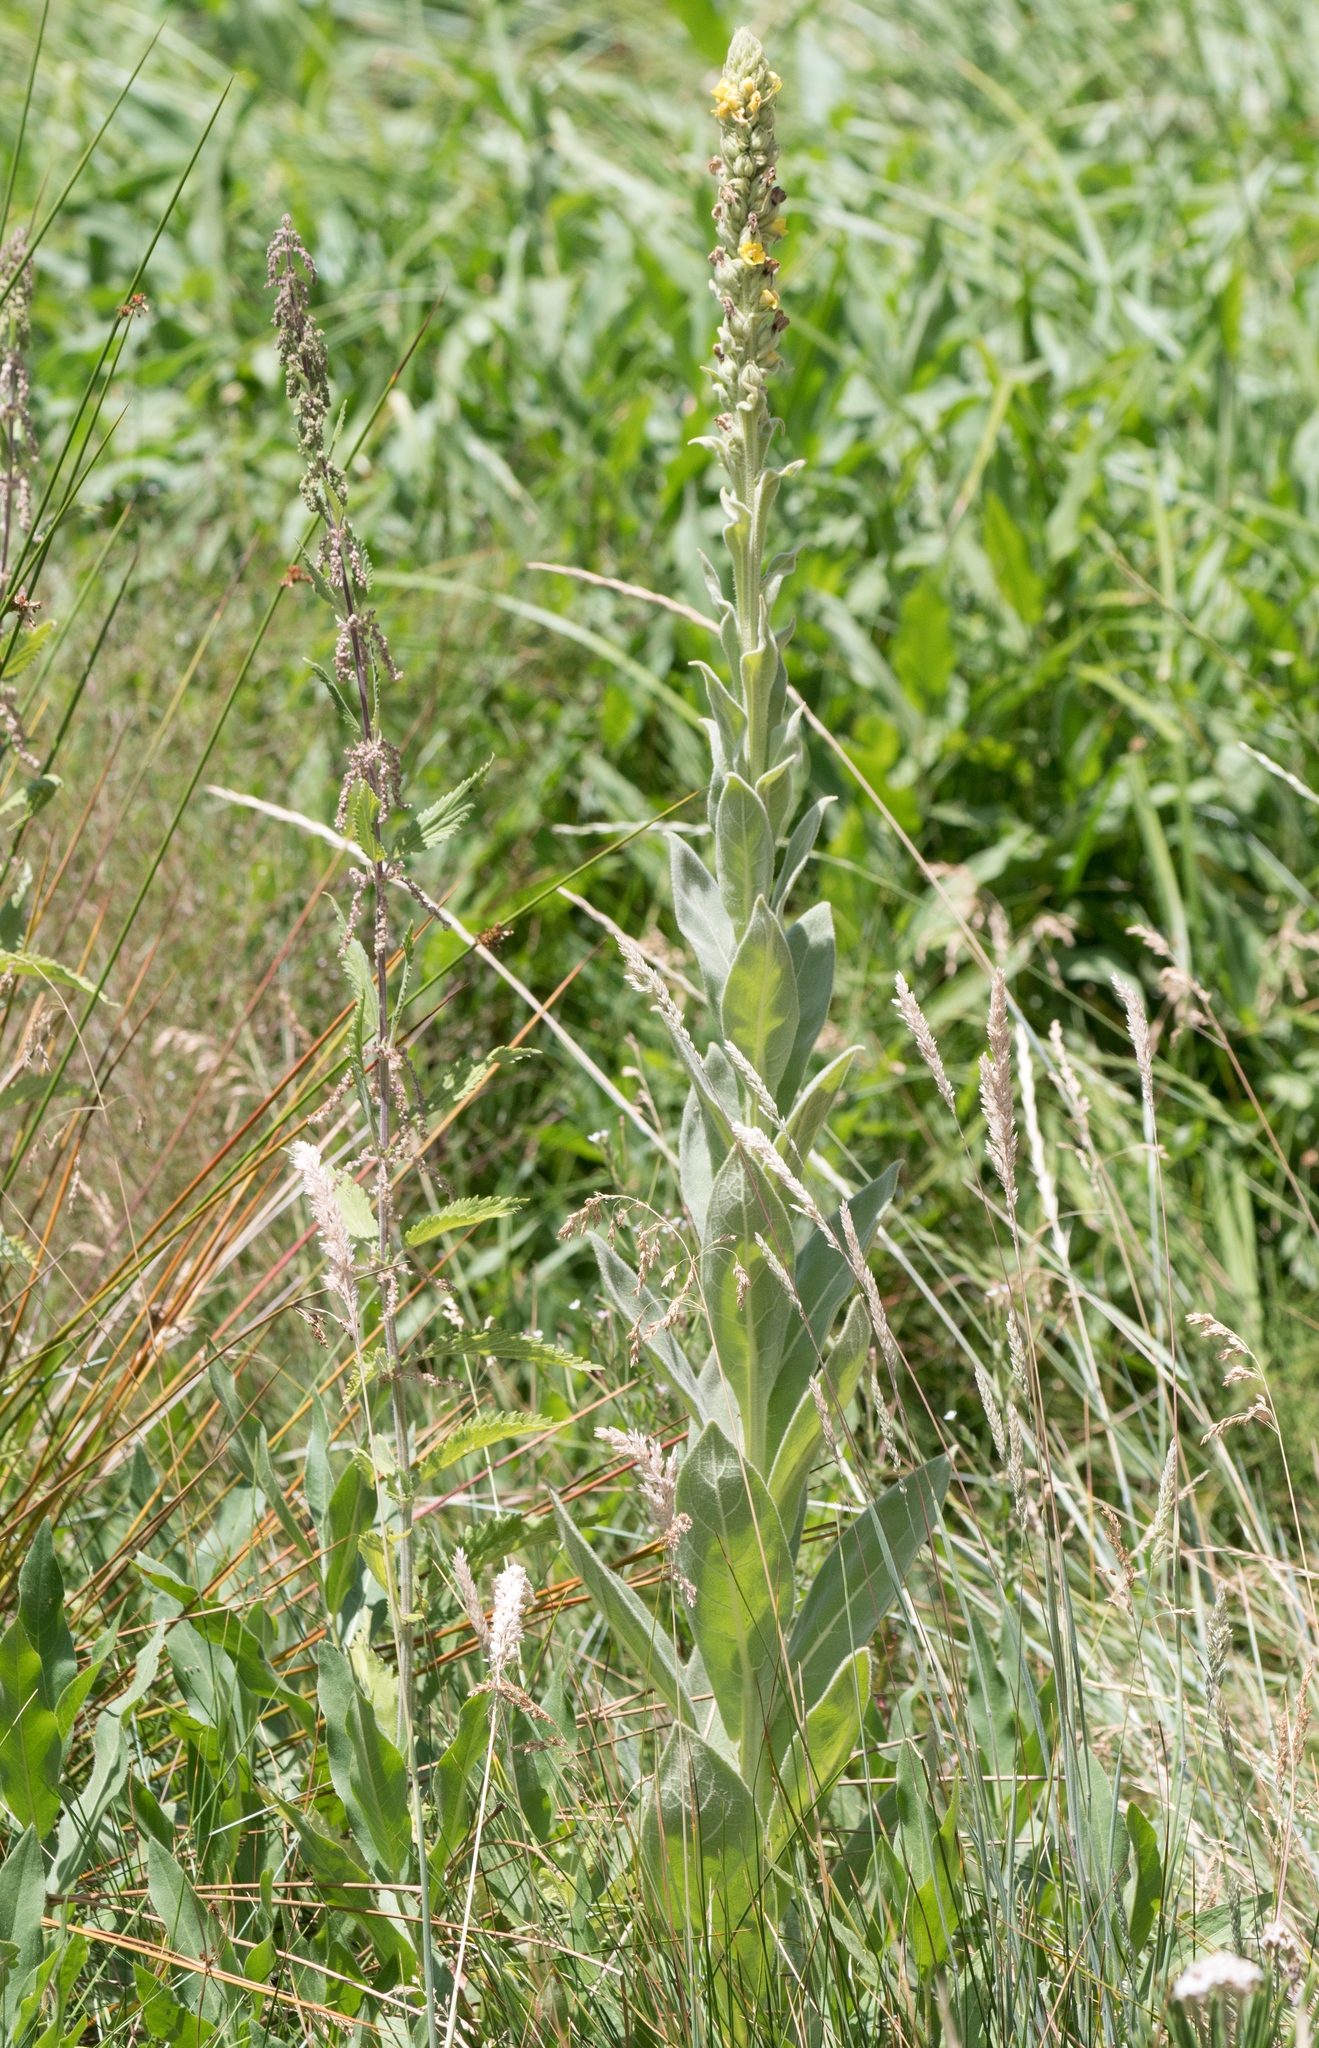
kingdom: Plantae
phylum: Tracheophyta
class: Magnoliopsida
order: Lamiales
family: Scrophulariaceae
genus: Verbascum
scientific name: Verbascum thapsus
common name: Common mullein
